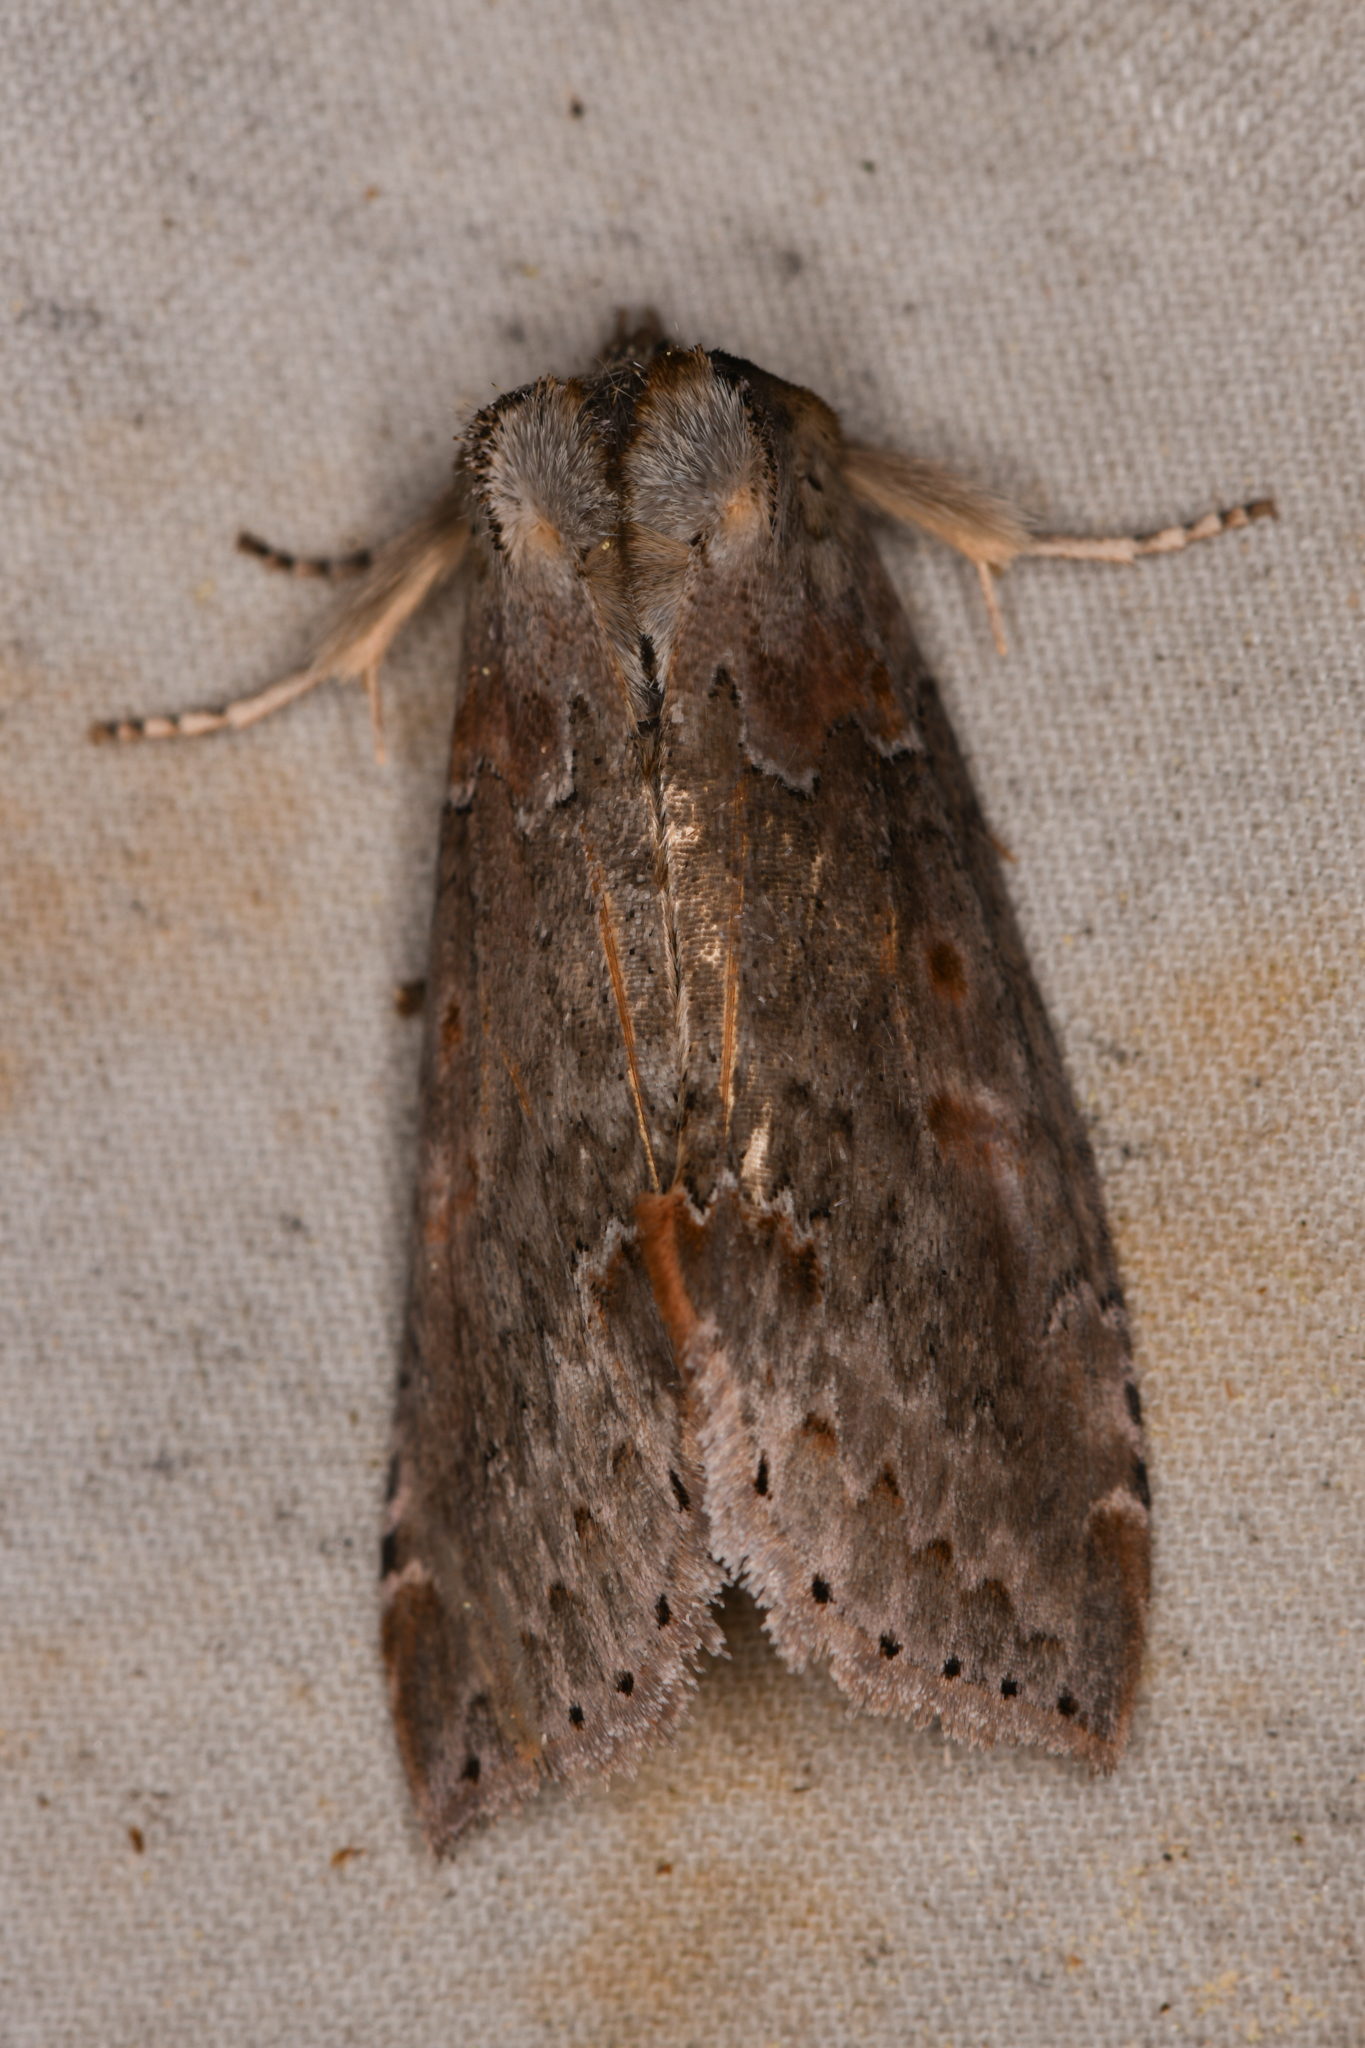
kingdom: Animalia
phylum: Arthropoda
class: Insecta
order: Lepidoptera
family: Drepanidae
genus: Pseudothyatira
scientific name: Pseudothyatira cymatophoroides
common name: Tufted thyatirid moth
